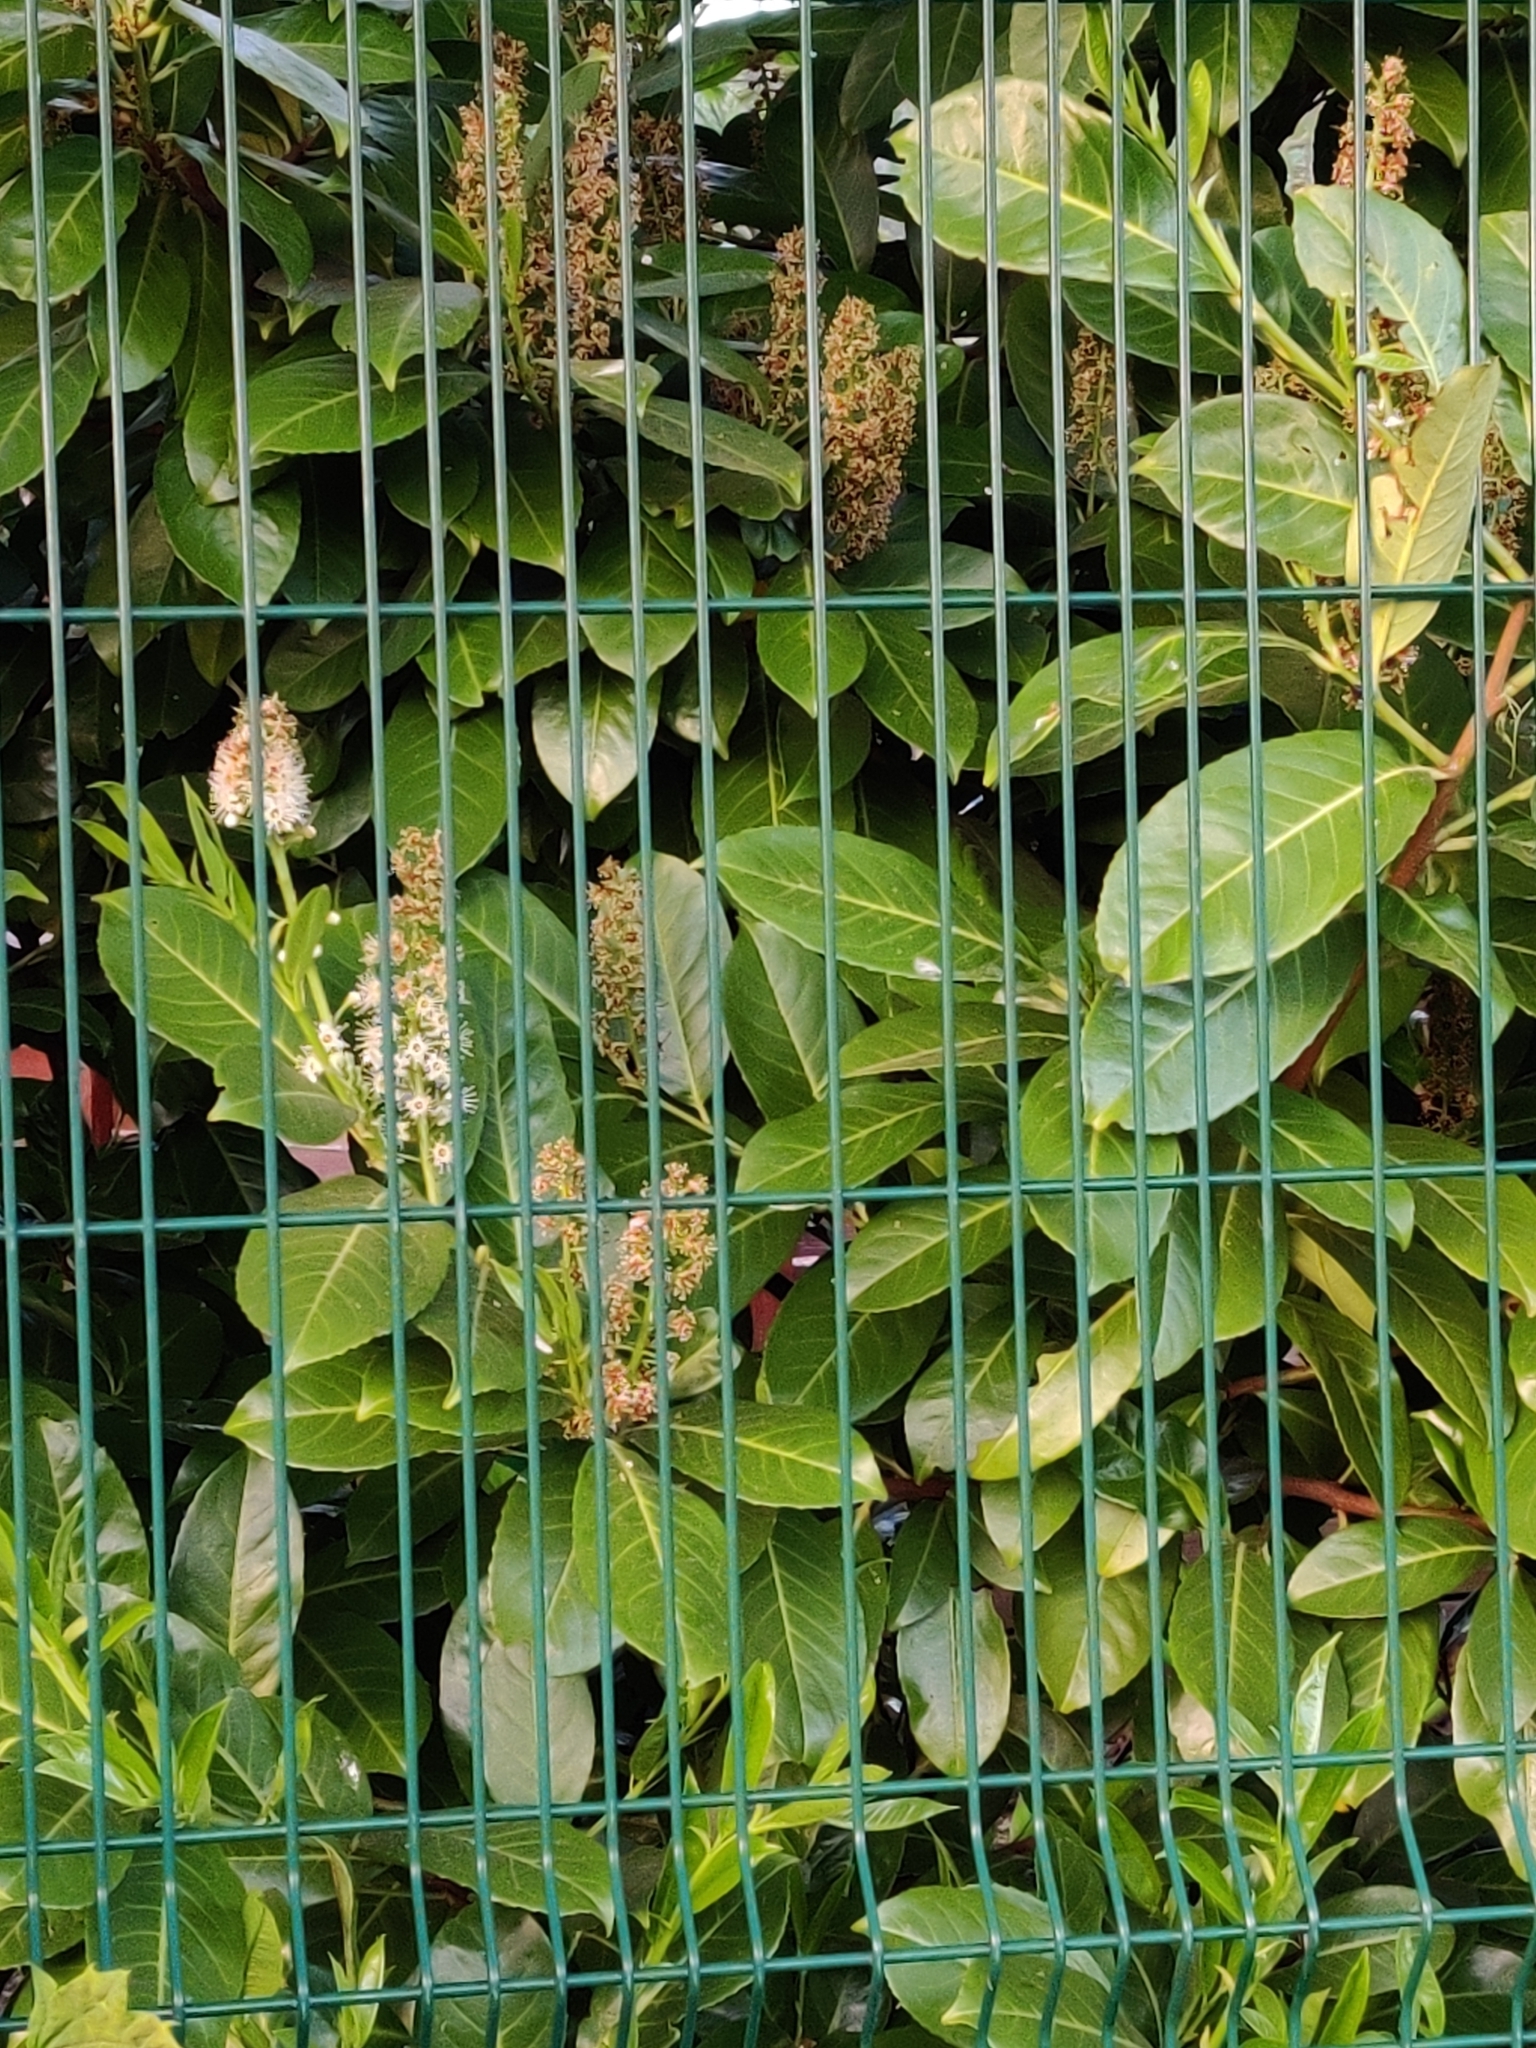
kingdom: Plantae
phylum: Tracheophyta
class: Magnoliopsida
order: Rosales
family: Rosaceae
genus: Prunus
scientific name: Prunus laurocerasus
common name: Cherry laurel
